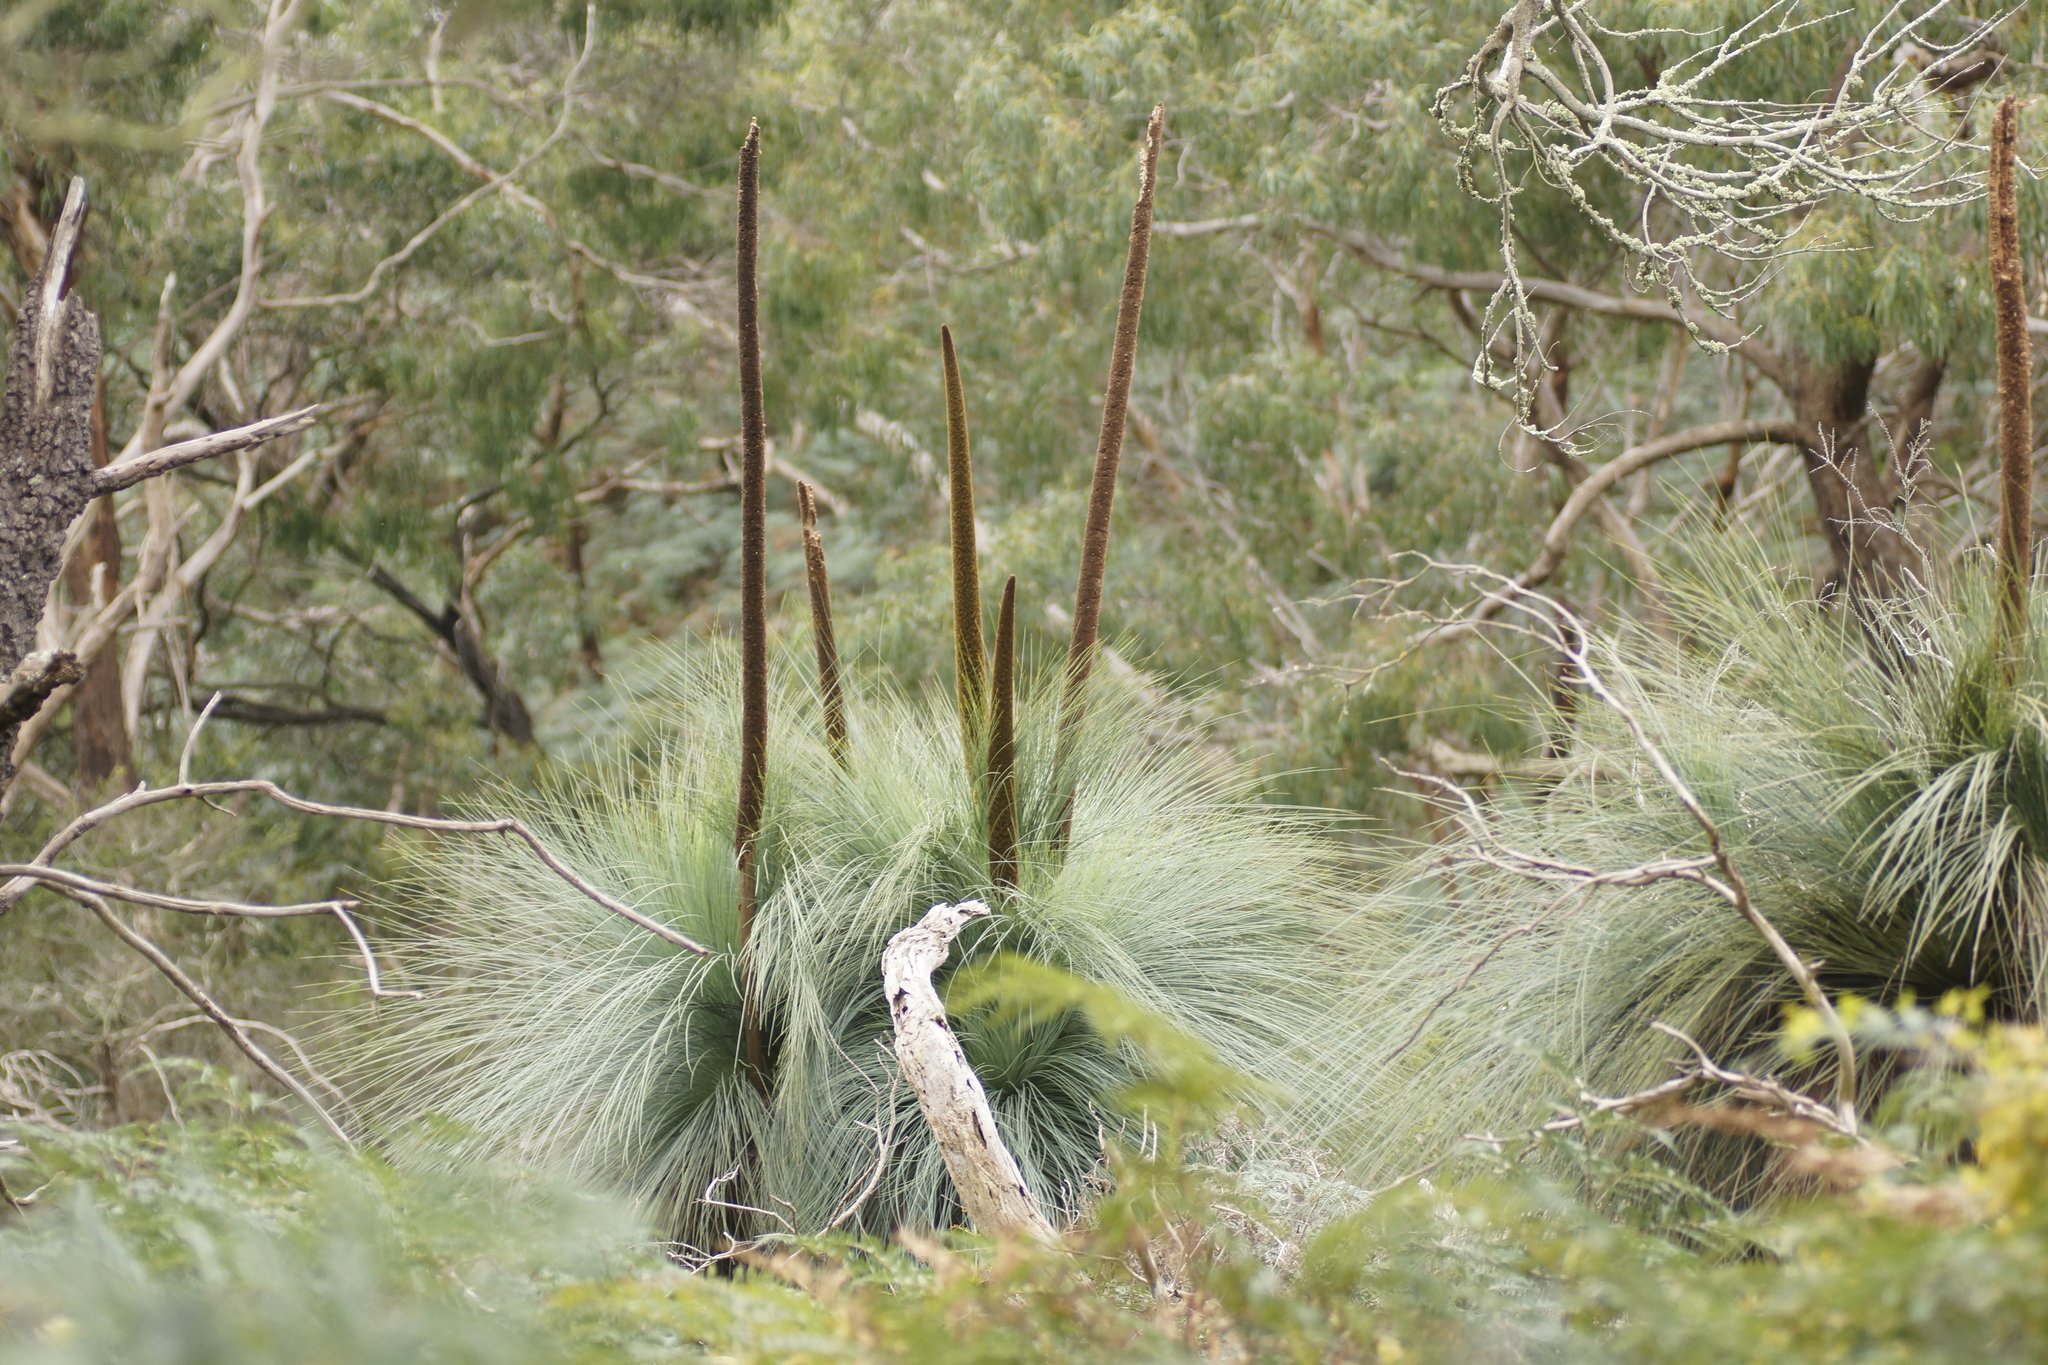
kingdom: Plantae
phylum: Tracheophyta
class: Liliopsida
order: Asparagales
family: Asphodelaceae
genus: Xanthorrhoea
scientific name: Xanthorrhoea australis
